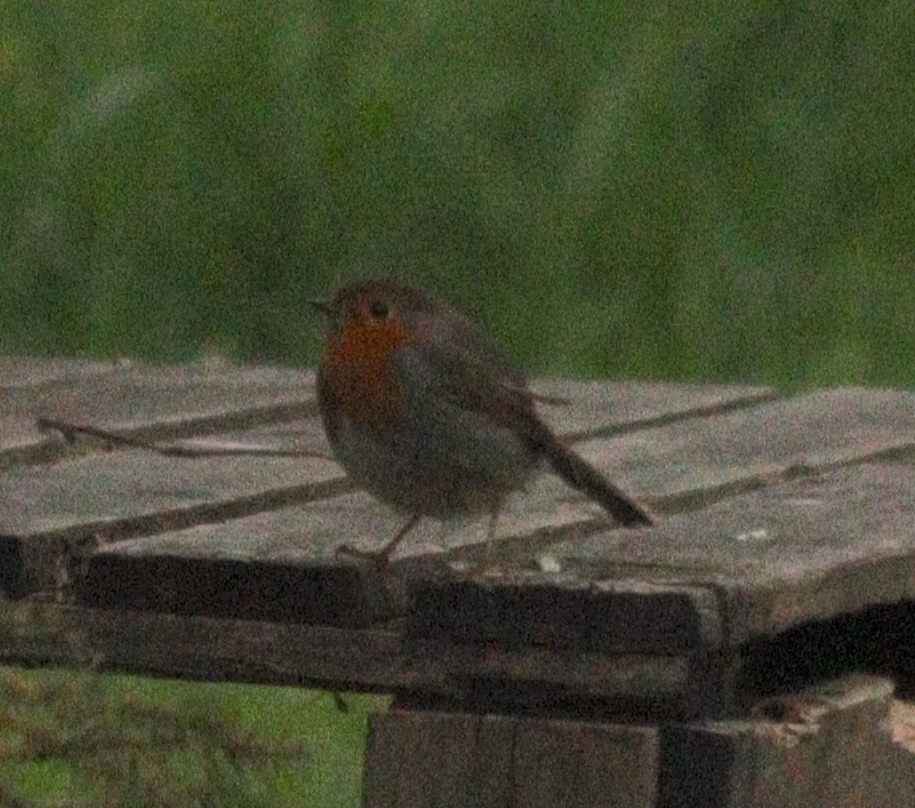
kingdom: Animalia
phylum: Chordata
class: Aves
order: Passeriformes
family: Muscicapidae
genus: Erithacus
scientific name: Erithacus rubecula
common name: European robin
